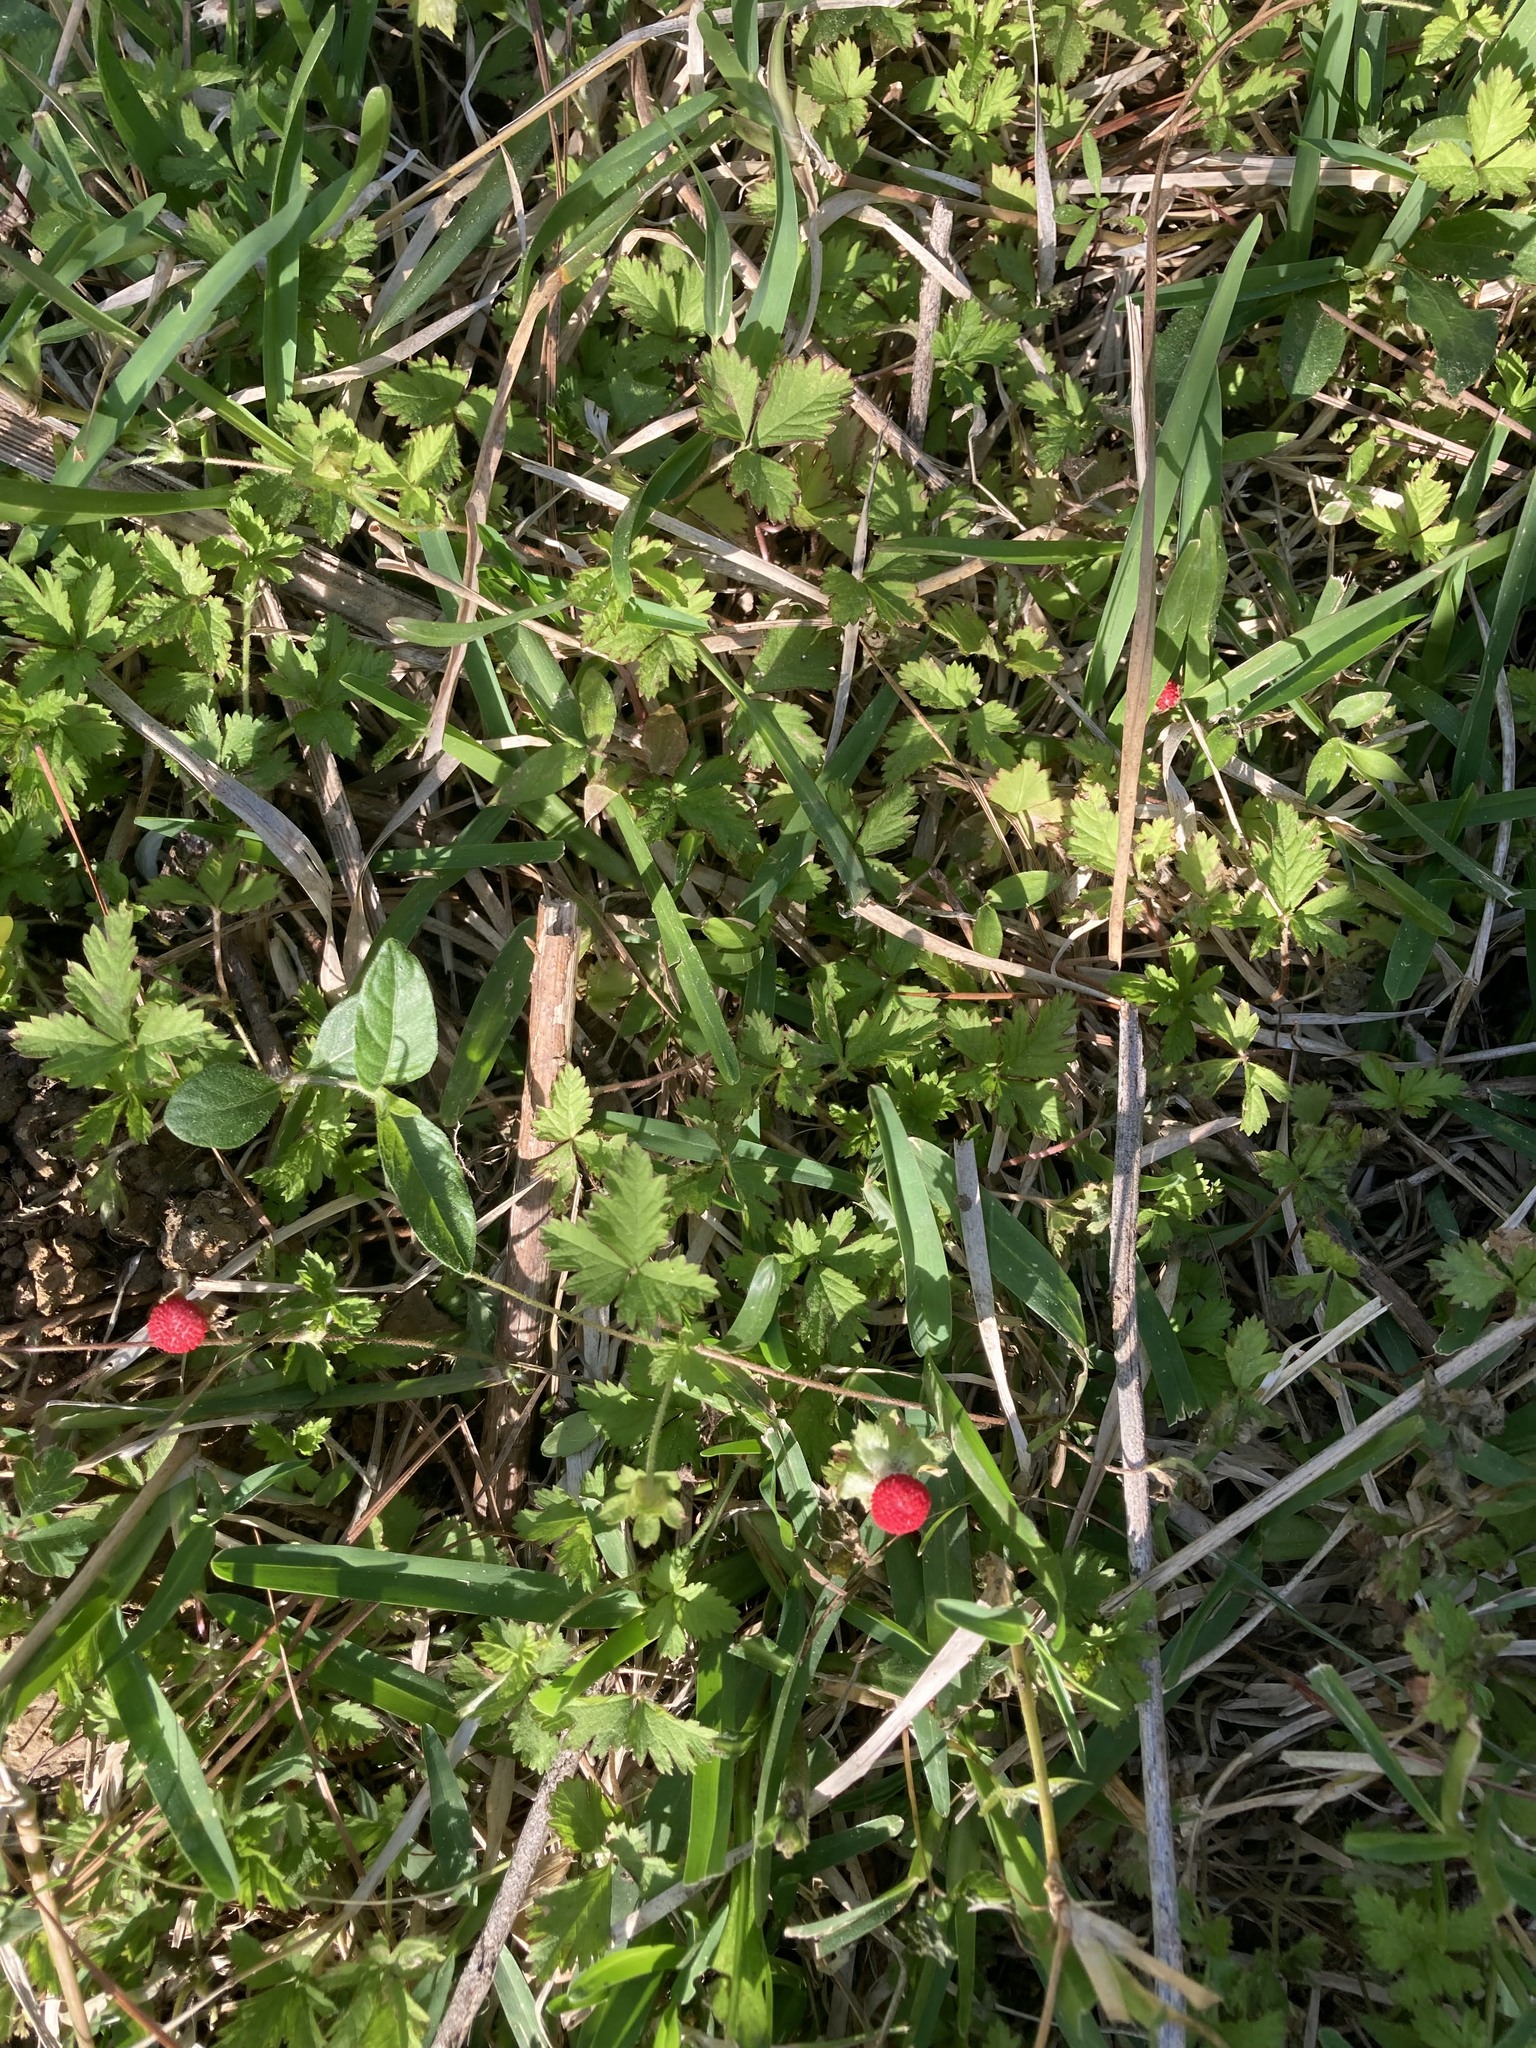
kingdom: Plantae
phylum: Tracheophyta
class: Magnoliopsida
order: Rosales
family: Rosaceae
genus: Potentilla
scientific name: Potentilla indica
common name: Yellow-flowered strawberry
